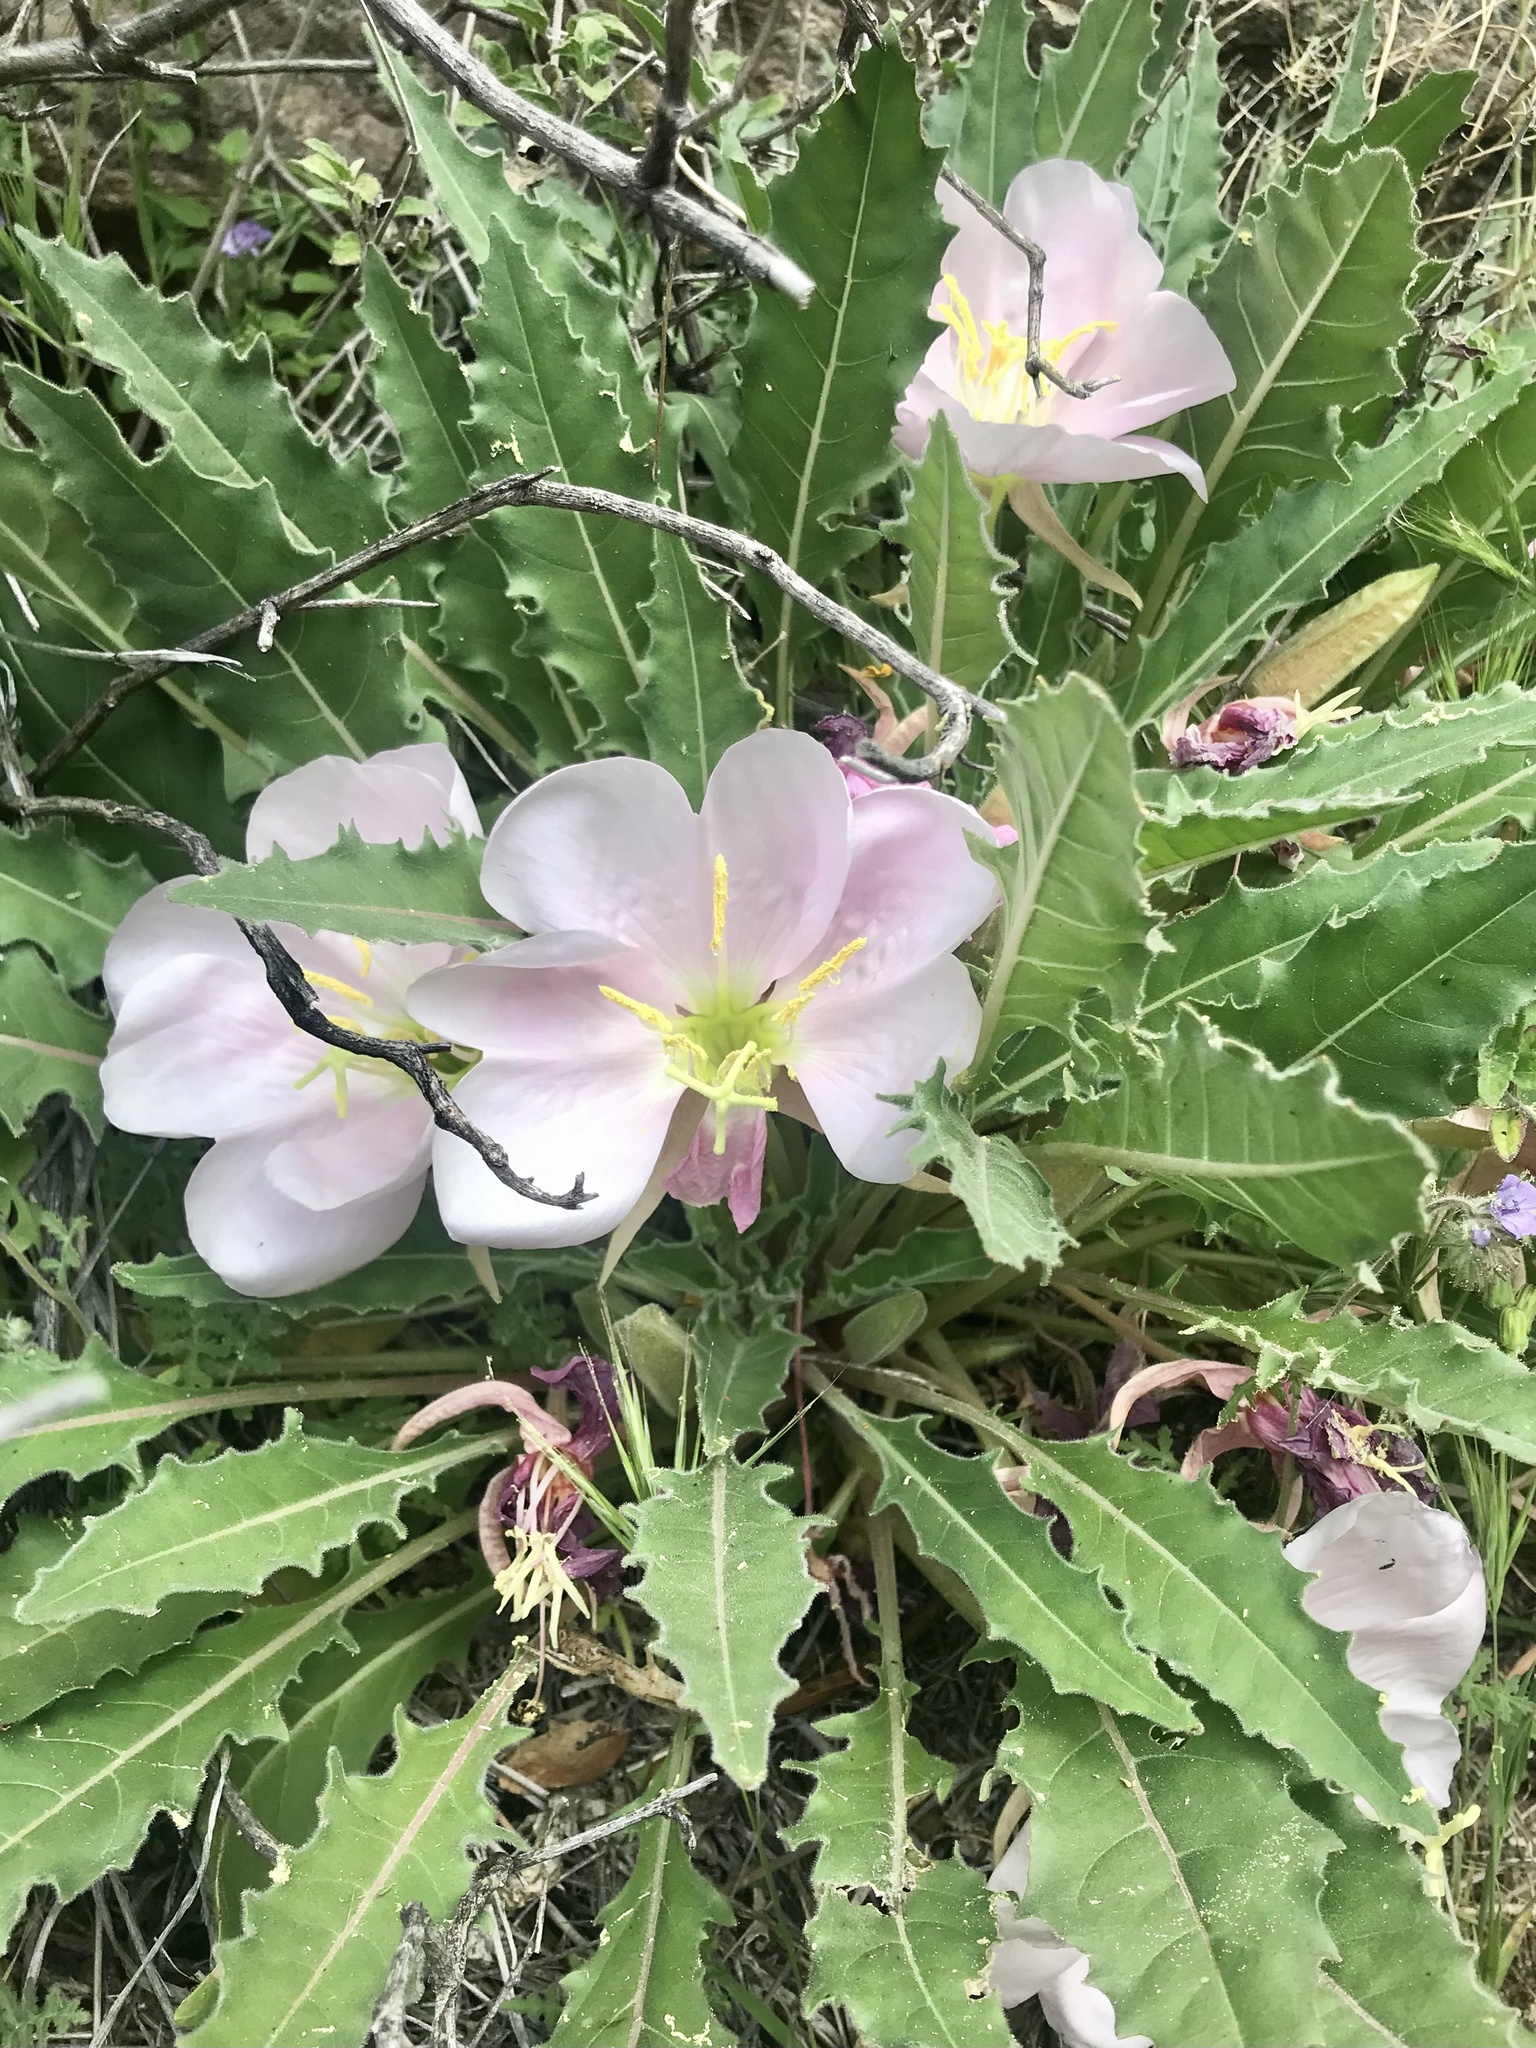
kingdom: Plantae
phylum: Tracheophyta
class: Magnoliopsida
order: Myrtales
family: Onagraceae
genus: Oenothera
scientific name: Oenothera cespitosa
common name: Tufted evening-primrose
